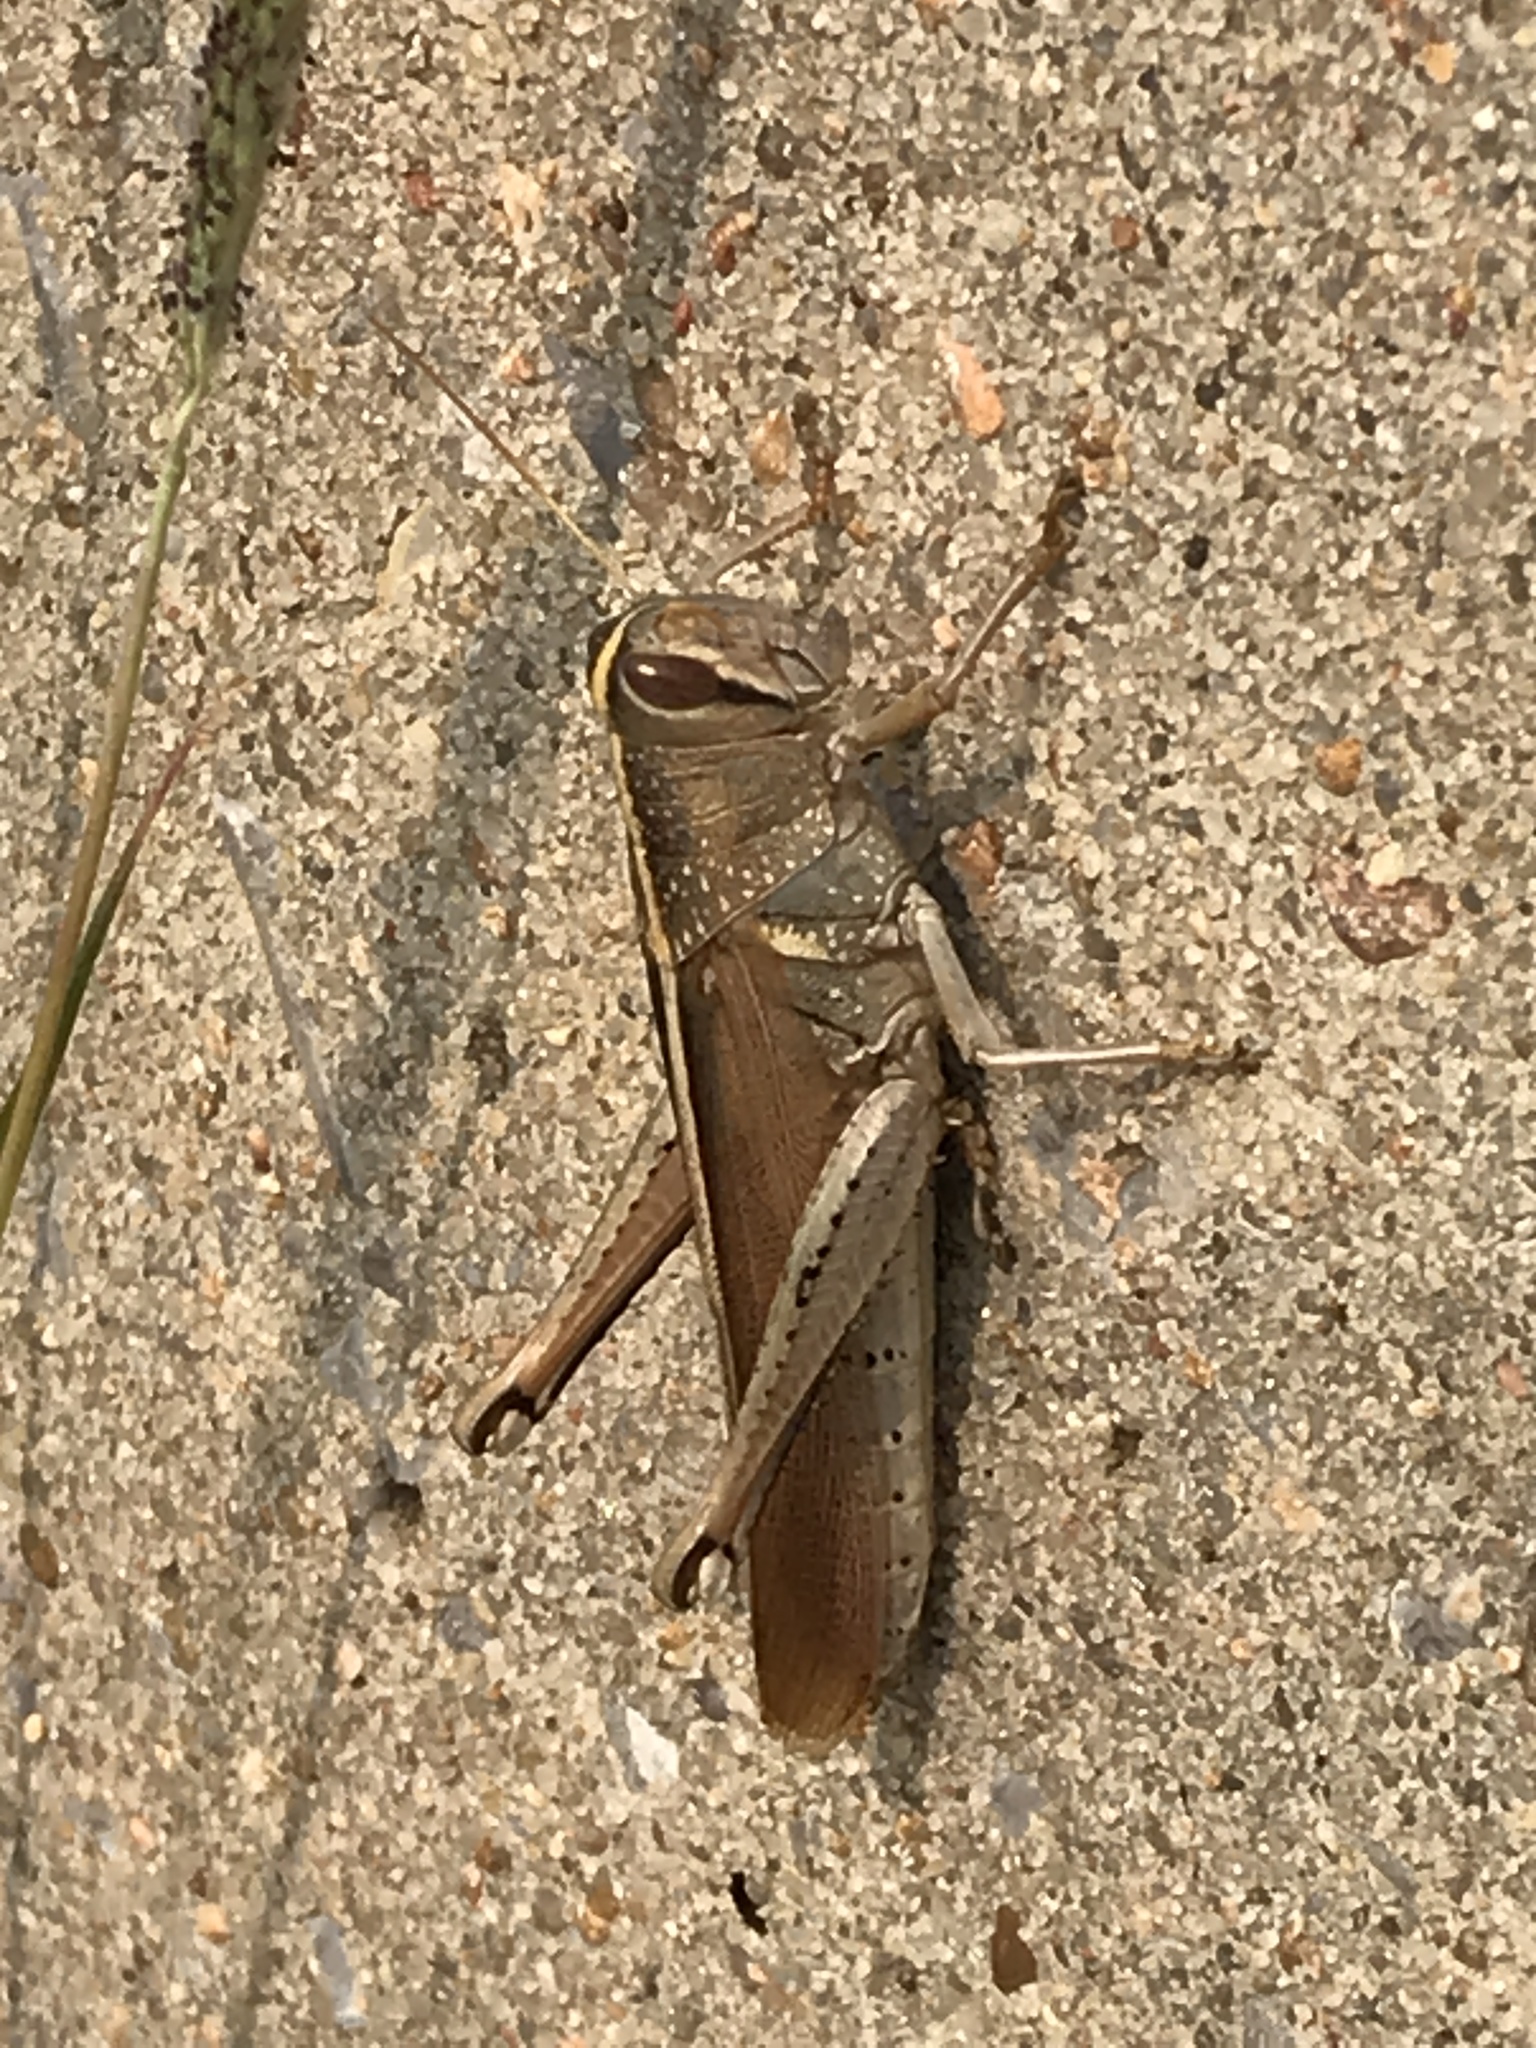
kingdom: Animalia
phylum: Arthropoda
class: Insecta
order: Orthoptera
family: Acrididae
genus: Schistocerca
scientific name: Schistocerca lineata
